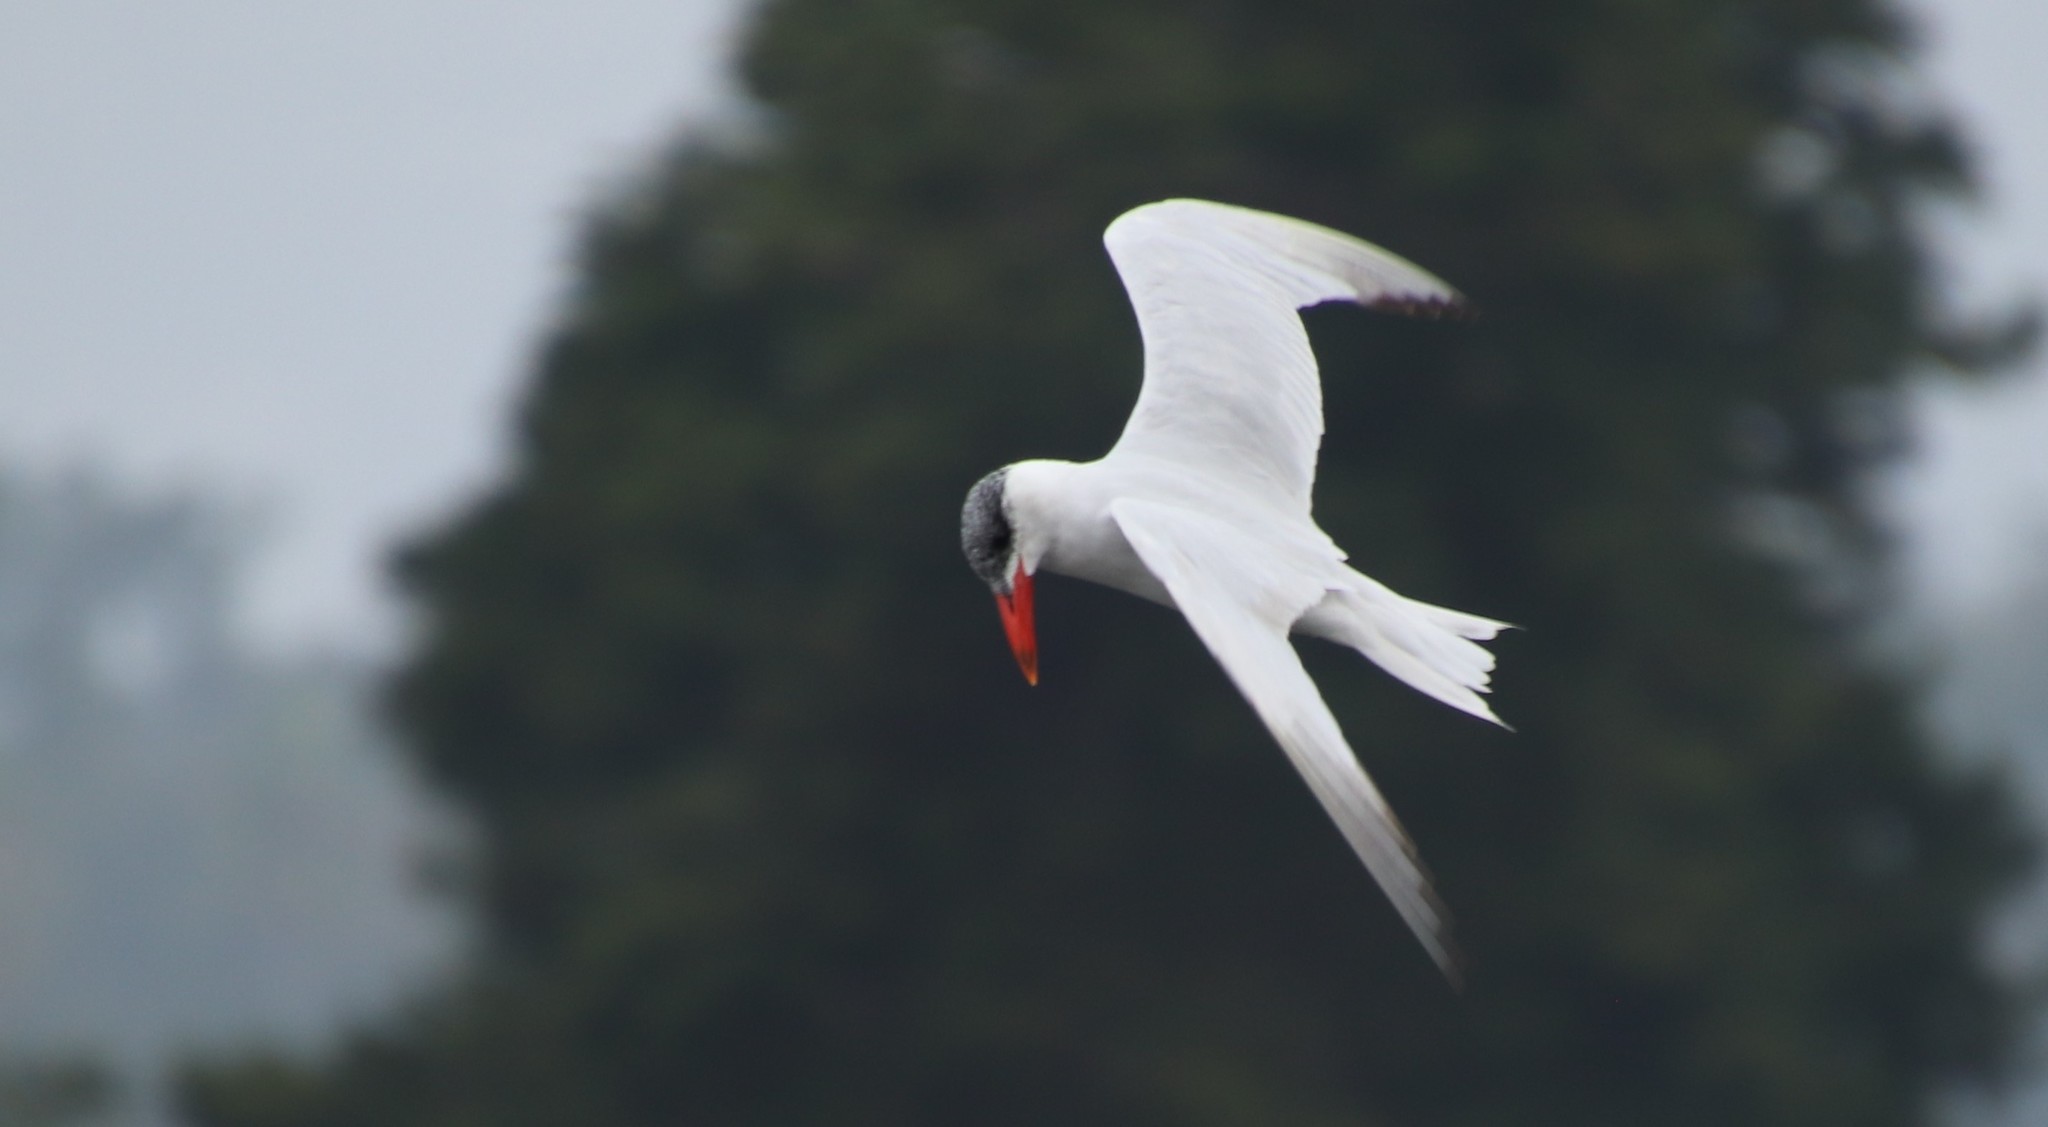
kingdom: Animalia
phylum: Chordata
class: Aves
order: Charadriiformes
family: Laridae
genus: Hydroprogne
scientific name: Hydroprogne caspia
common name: Caspian tern
